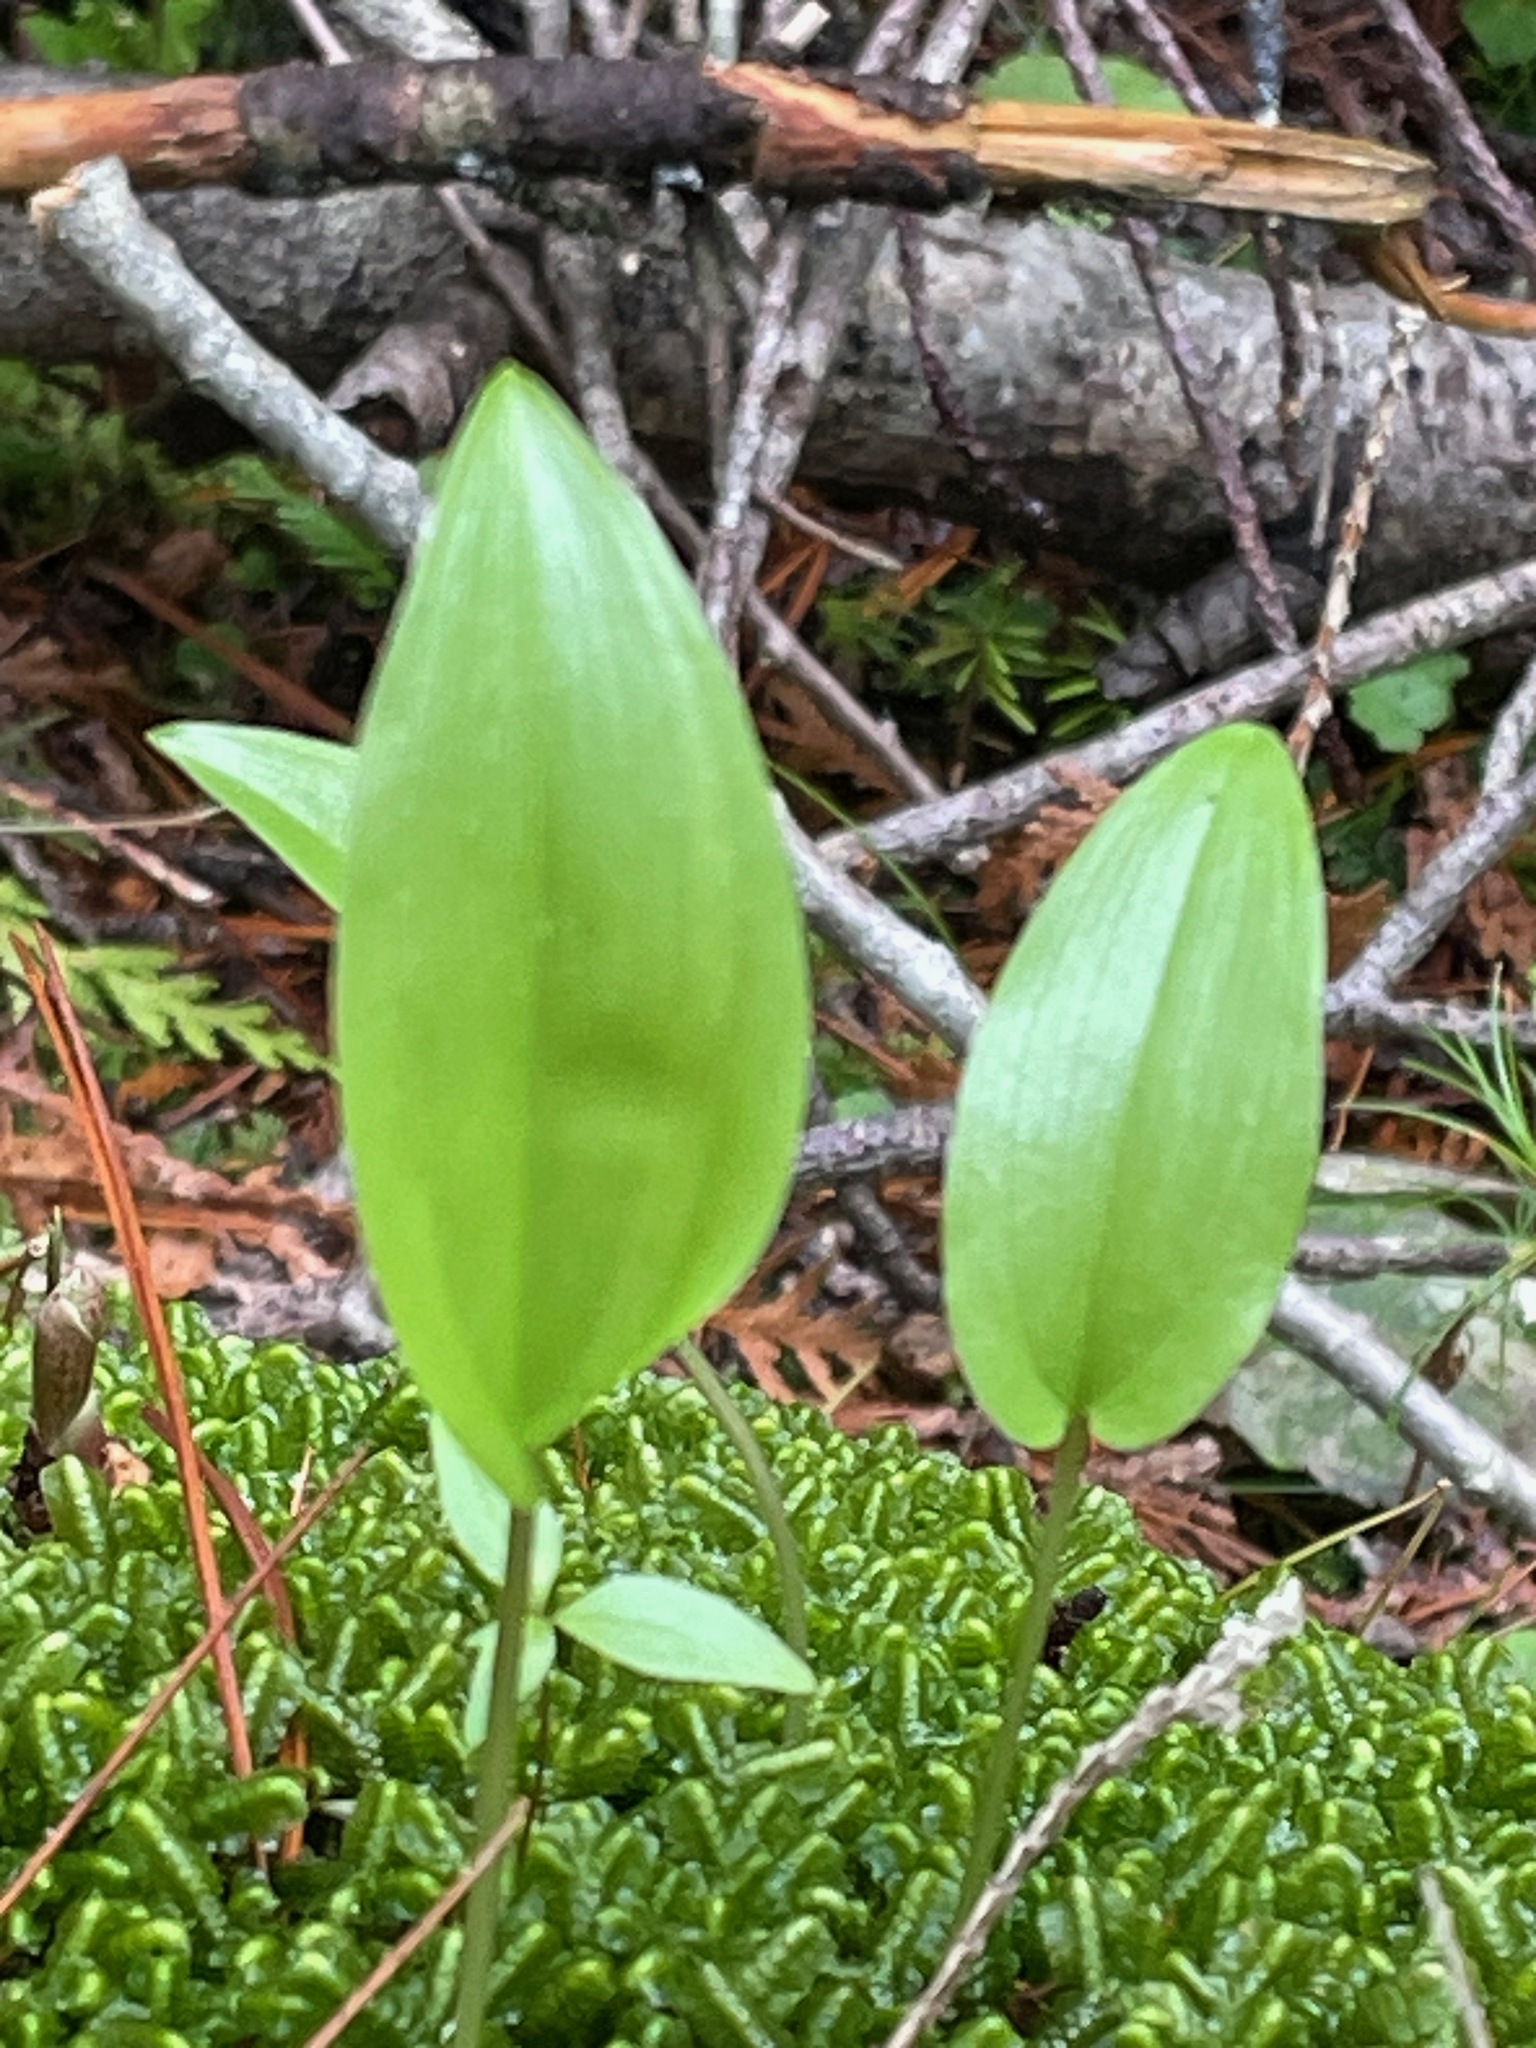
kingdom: Plantae
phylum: Tracheophyta
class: Liliopsida
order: Asparagales
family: Asparagaceae
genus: Maianthemum
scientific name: Maianthemum canadense
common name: False lily-of-the-valley
